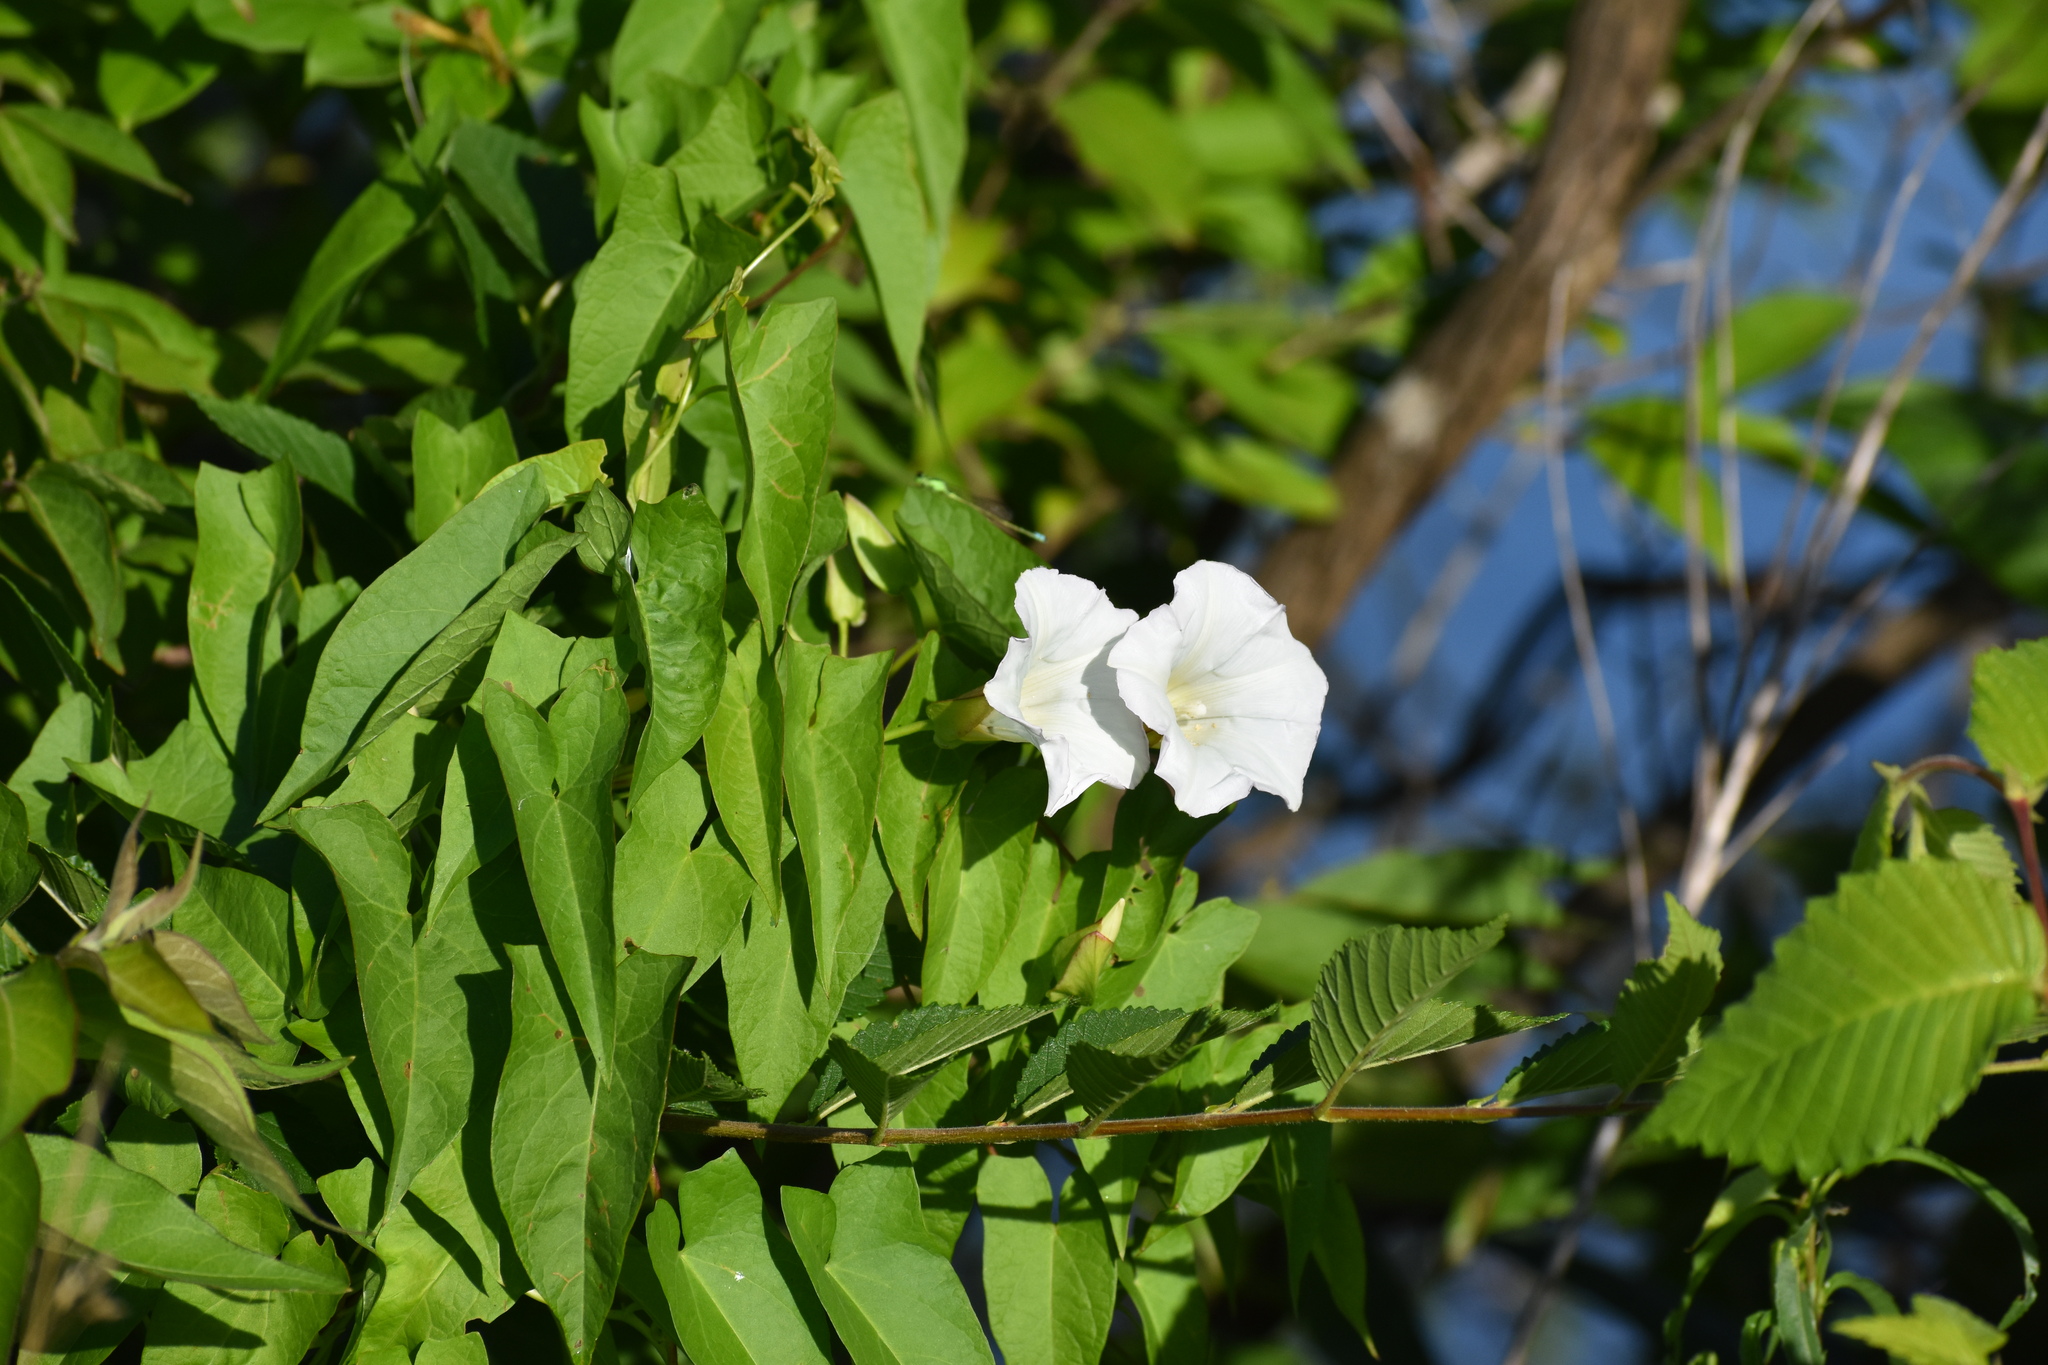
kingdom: Plantae
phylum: Tracheophyta
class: Magnoliopsida
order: Solanales
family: Convolvulaceae
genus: Calystegia
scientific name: Calystegia sepium
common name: Hedge bindweed
